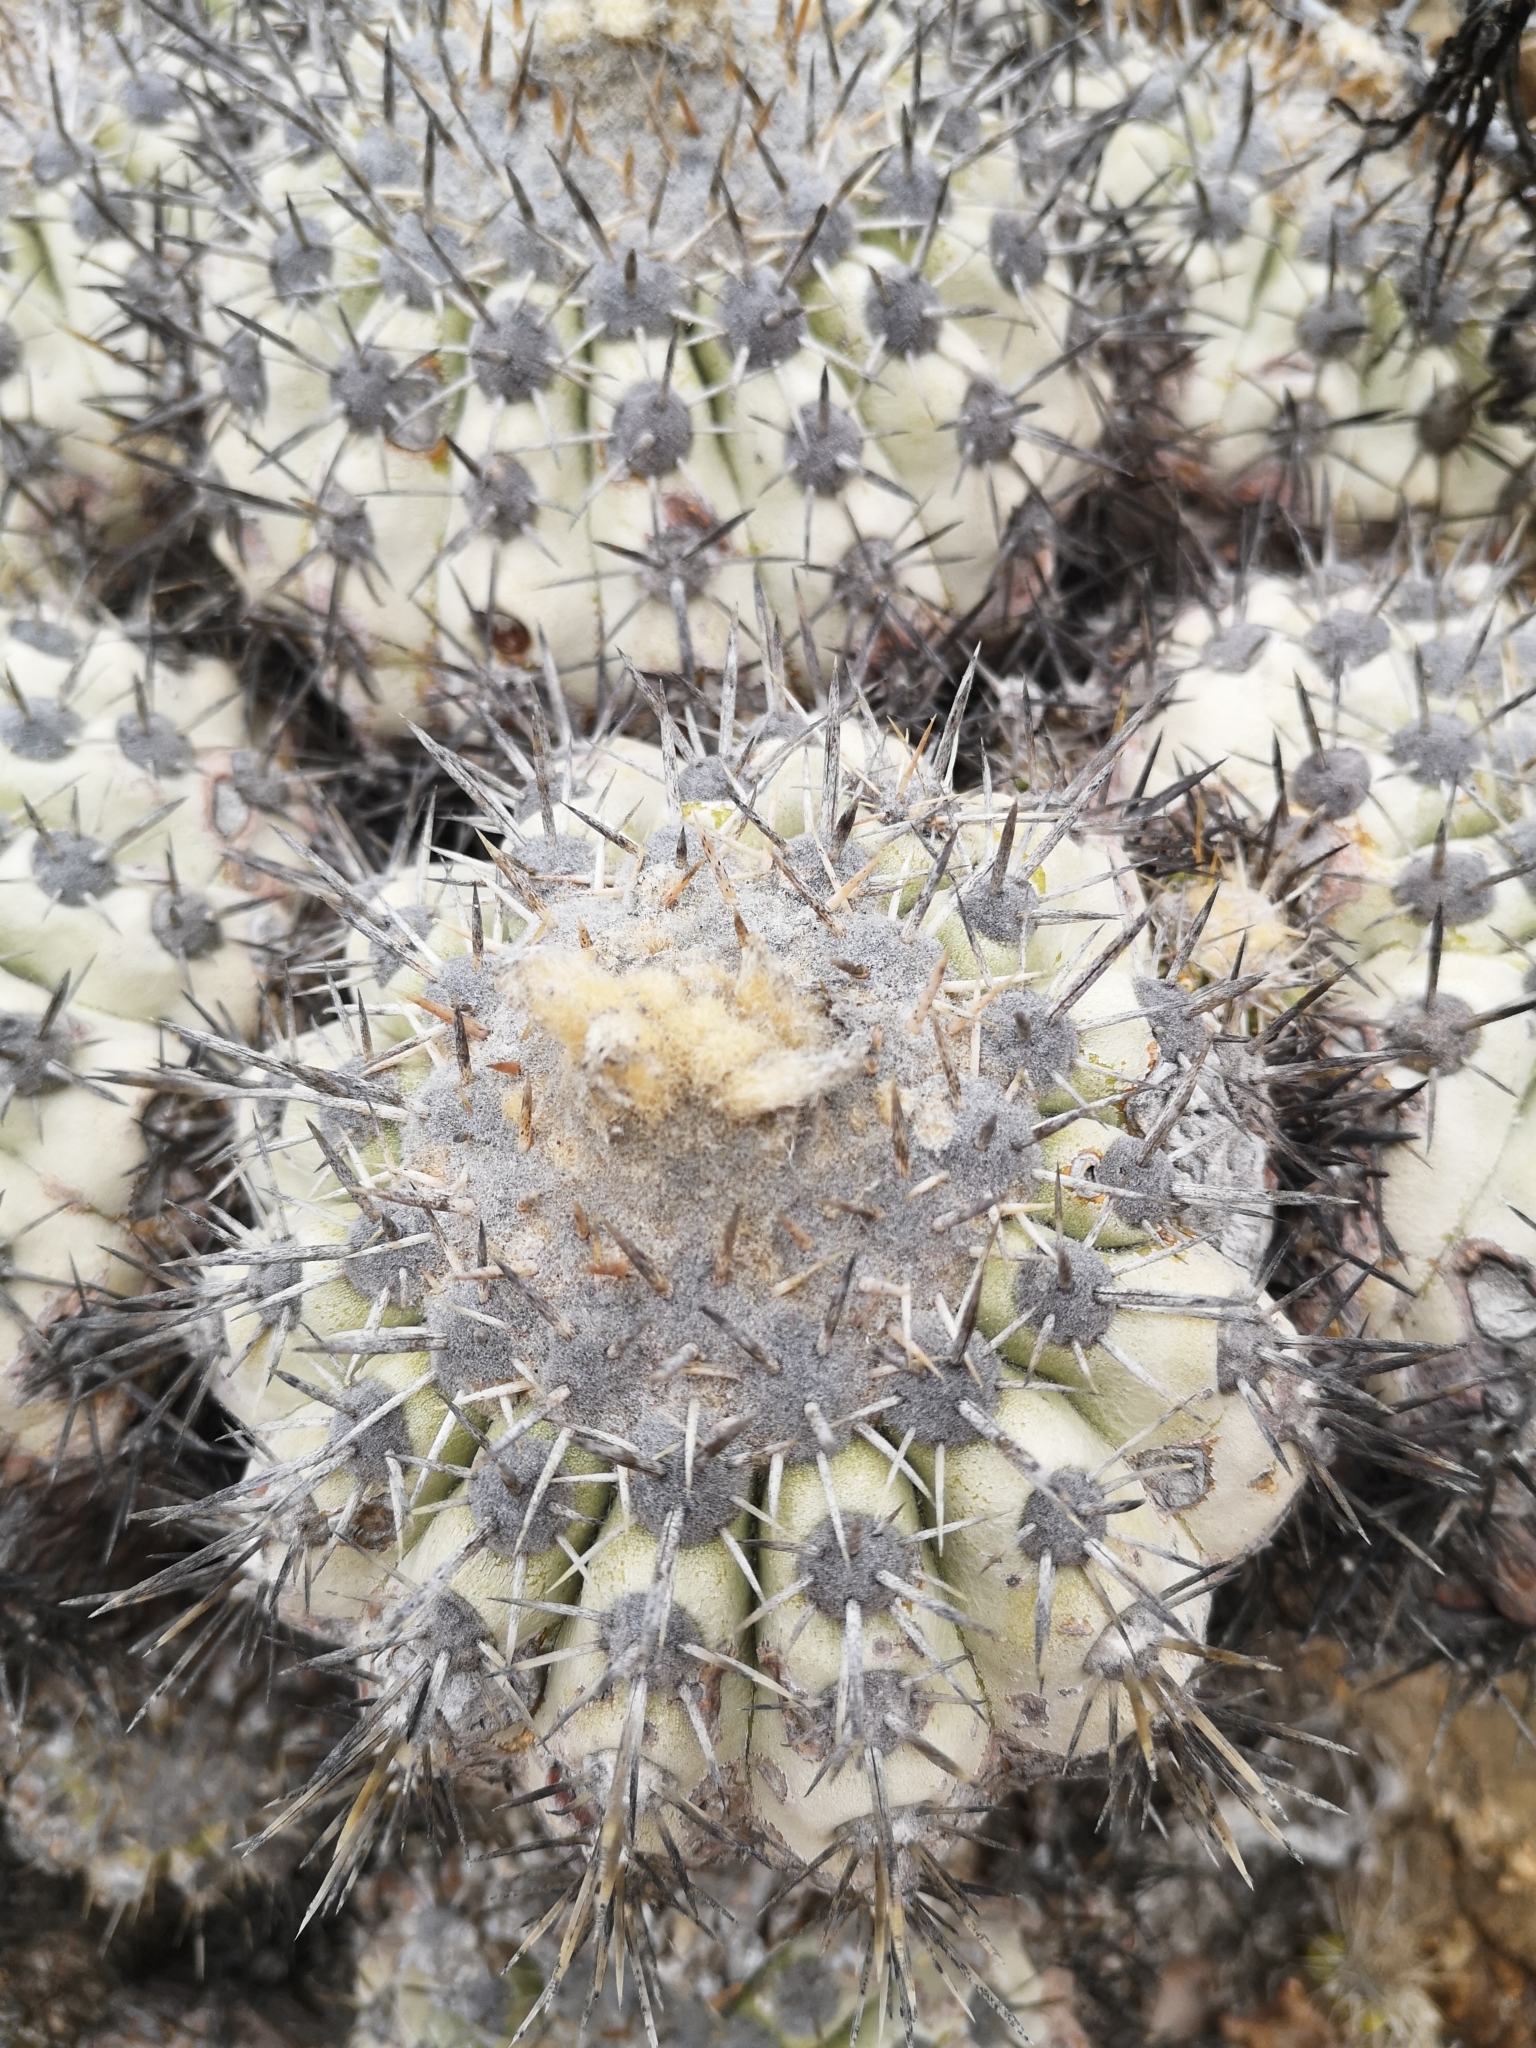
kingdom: Plantae
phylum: Tracheophyta
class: Magnoliopsida
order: Caryophyllales
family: Cactaceae
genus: Copiapoa
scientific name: Copiapoa cinerascens
